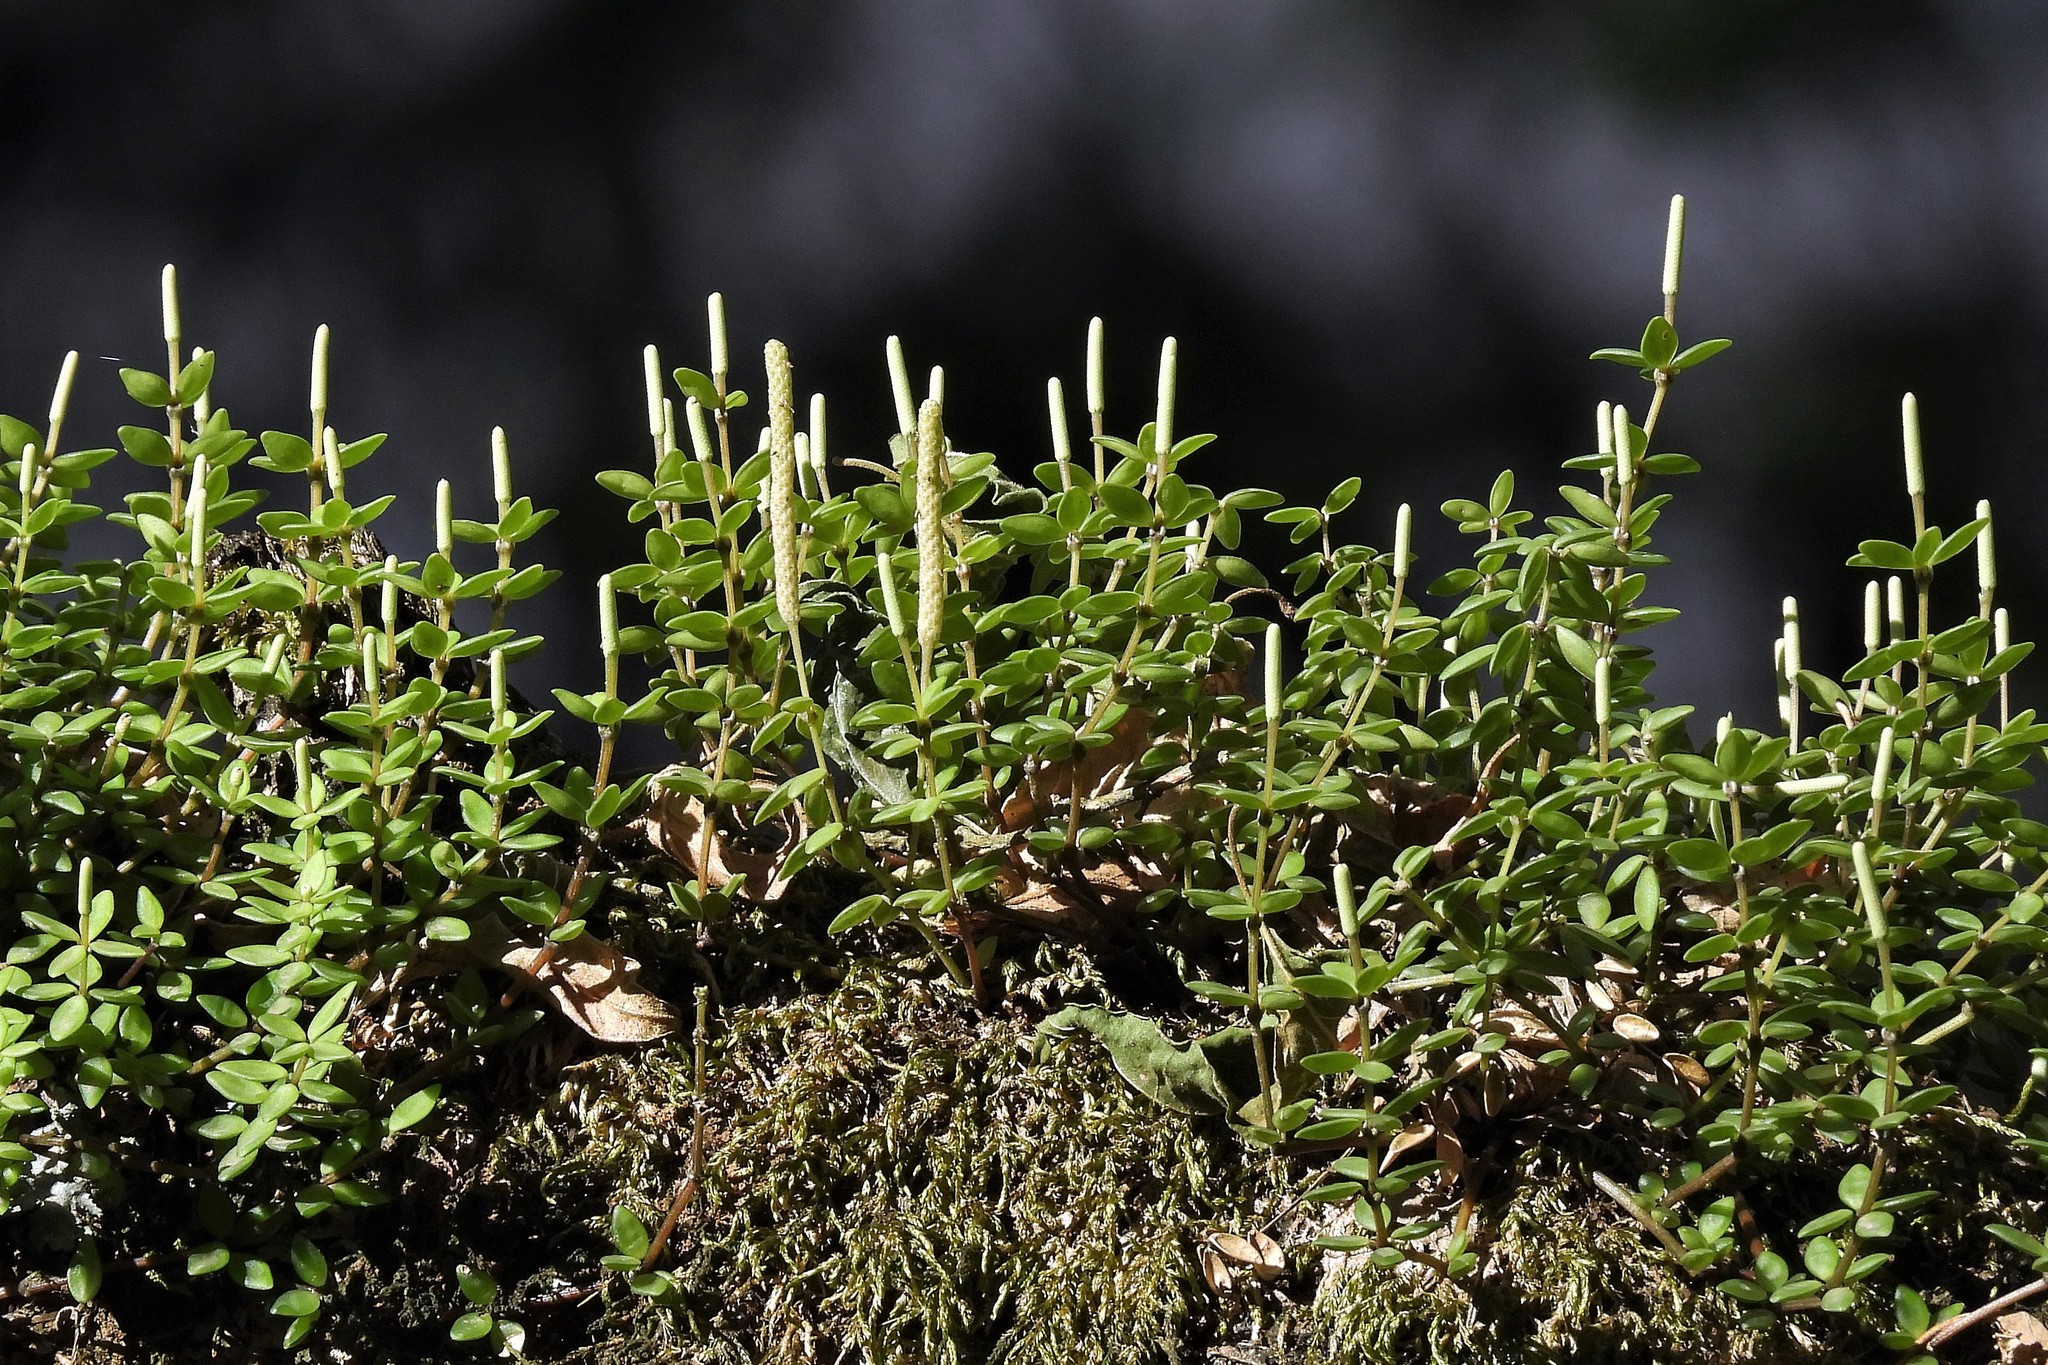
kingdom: Plantae
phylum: Tracheophyta
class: Magnoliopsida
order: Piperales
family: Piperaceae
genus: Peperomia
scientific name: Peperomia tetraphylla
